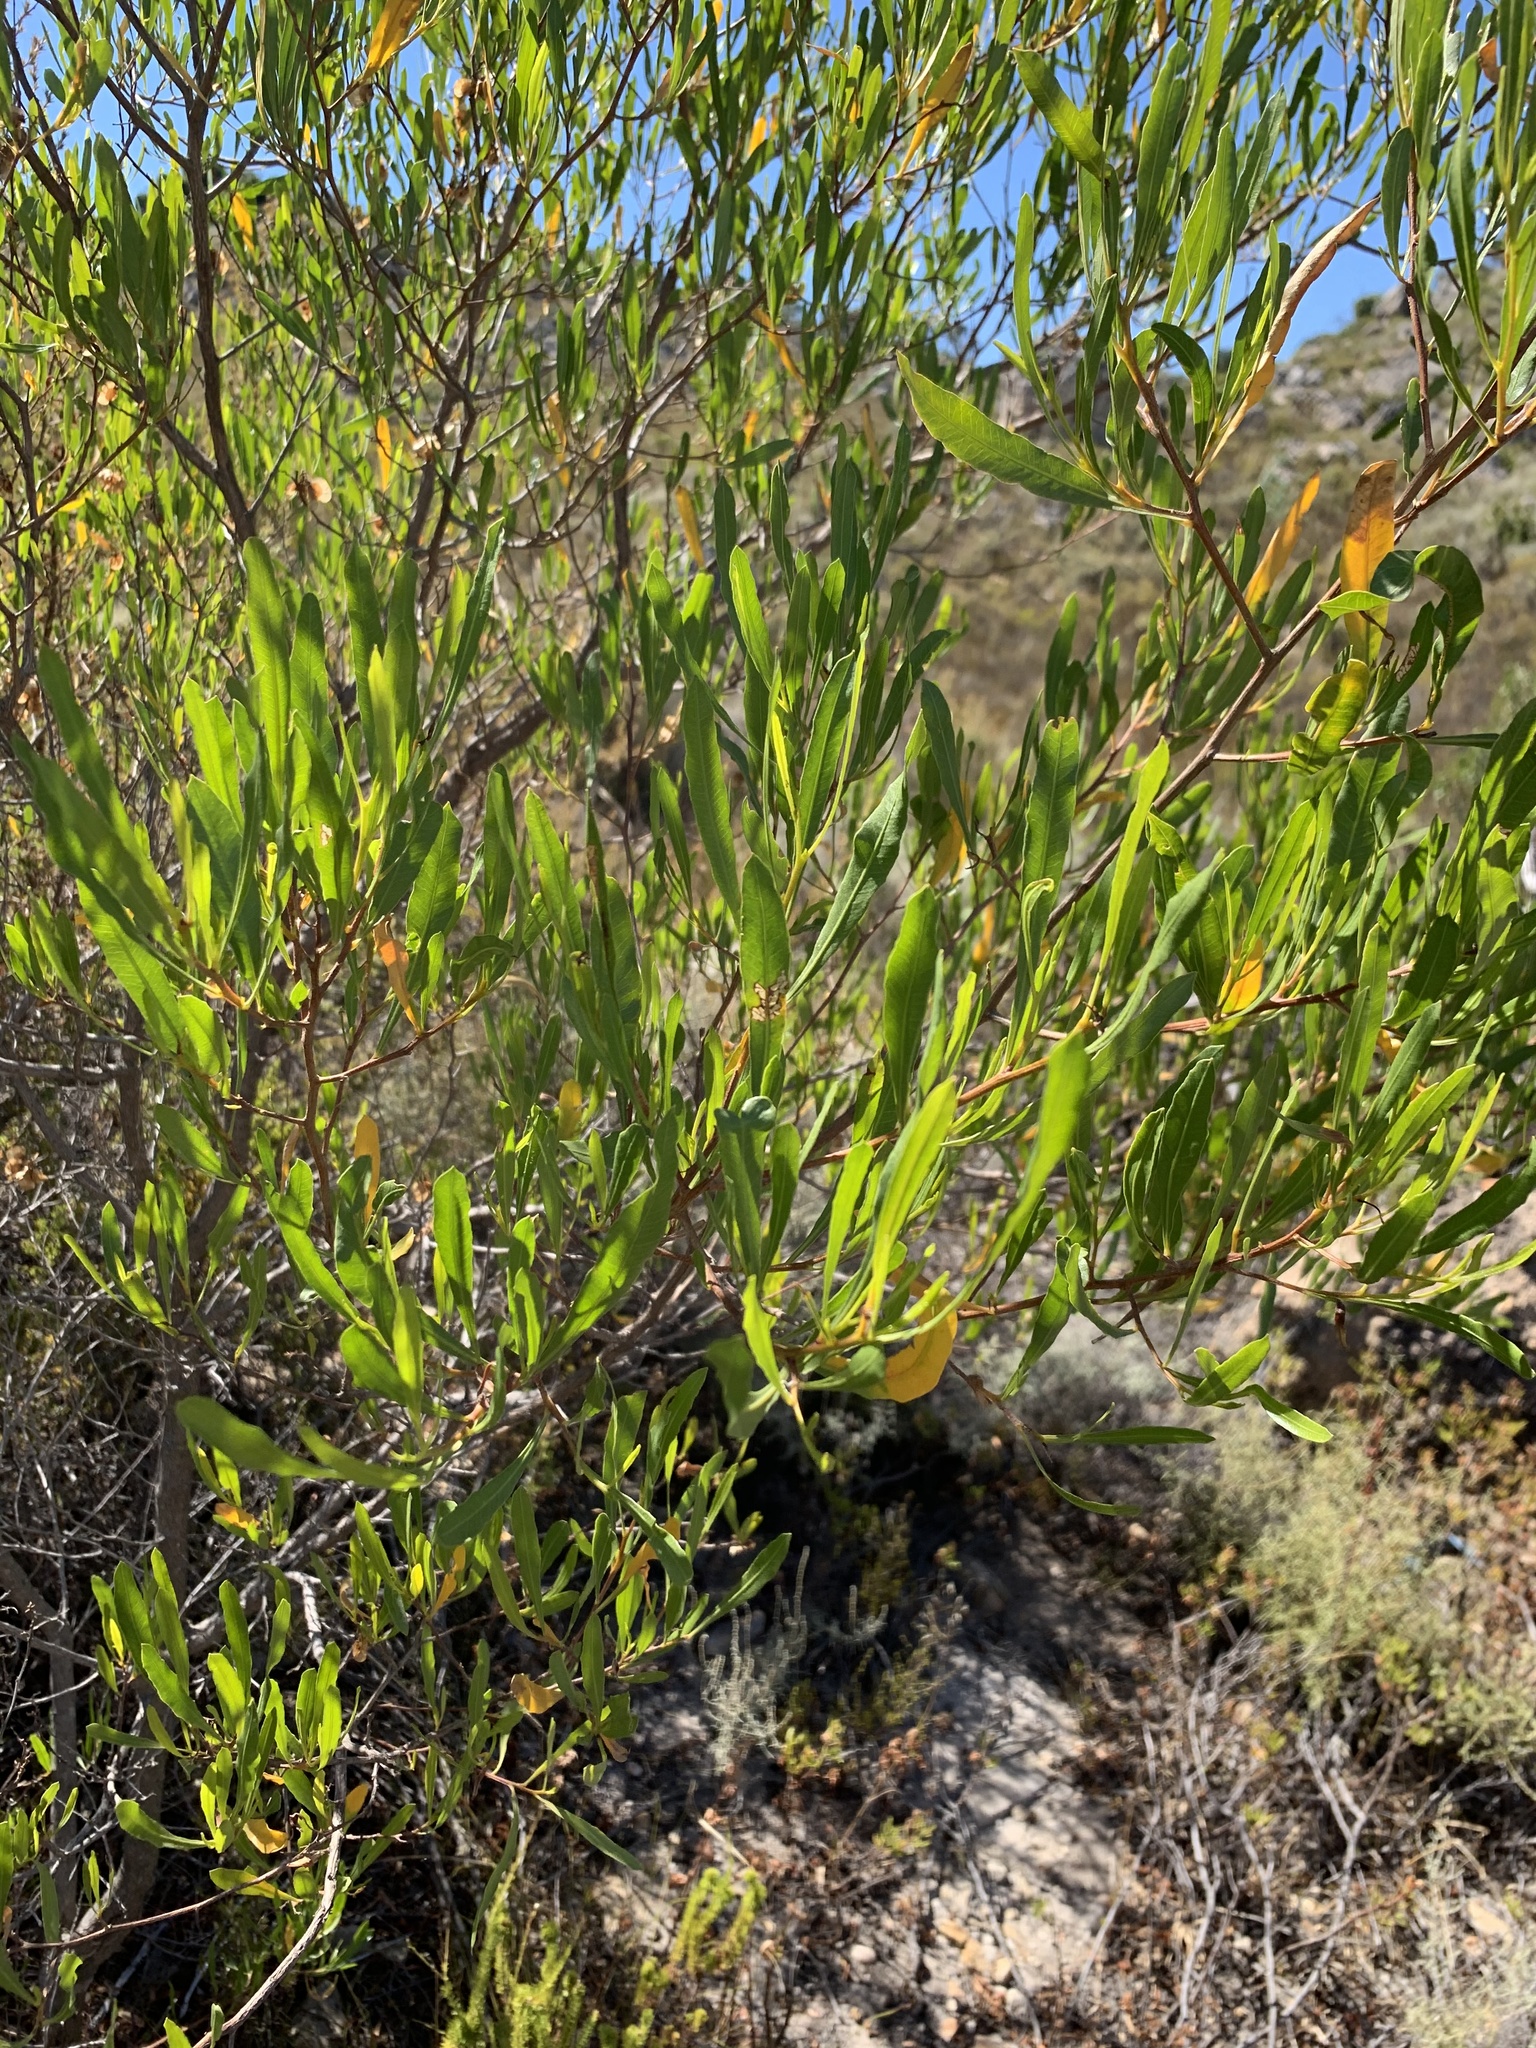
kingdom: Plantae
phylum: Tracheophyta
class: Magnoliopsida
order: Sapindales
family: Sapindaceae
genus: Dodonaea
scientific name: Dodonaea viscosa
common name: Hopbush
